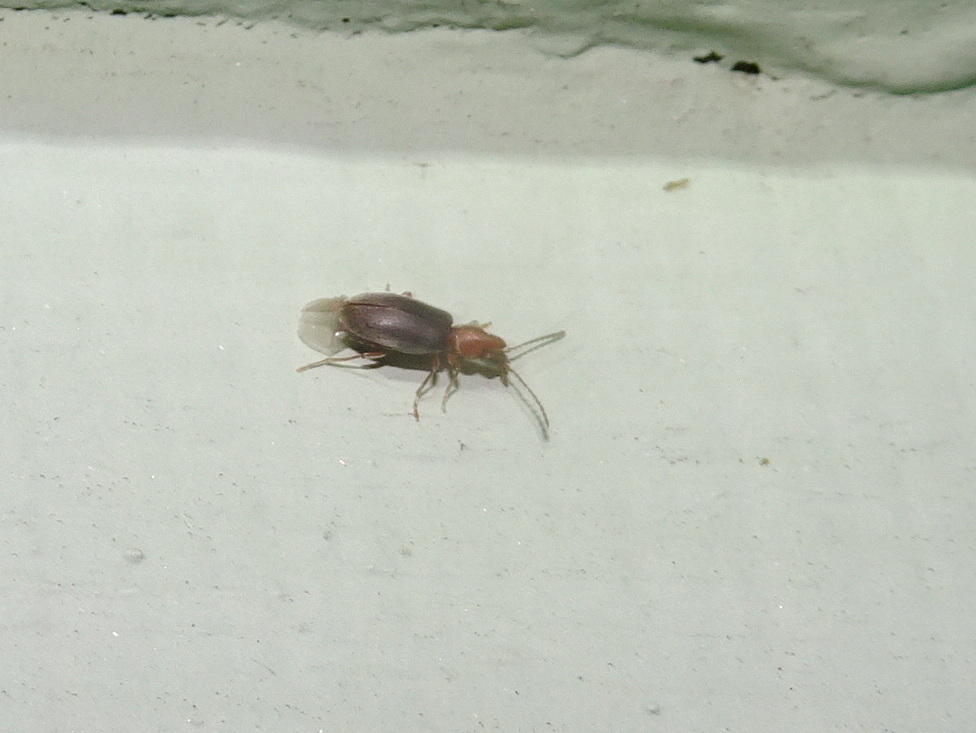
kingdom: Animalia
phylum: Arthropoda
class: Insecta
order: Coleoptera
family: Anthicidae
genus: Notoxus
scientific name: Notoxus murinipennis
